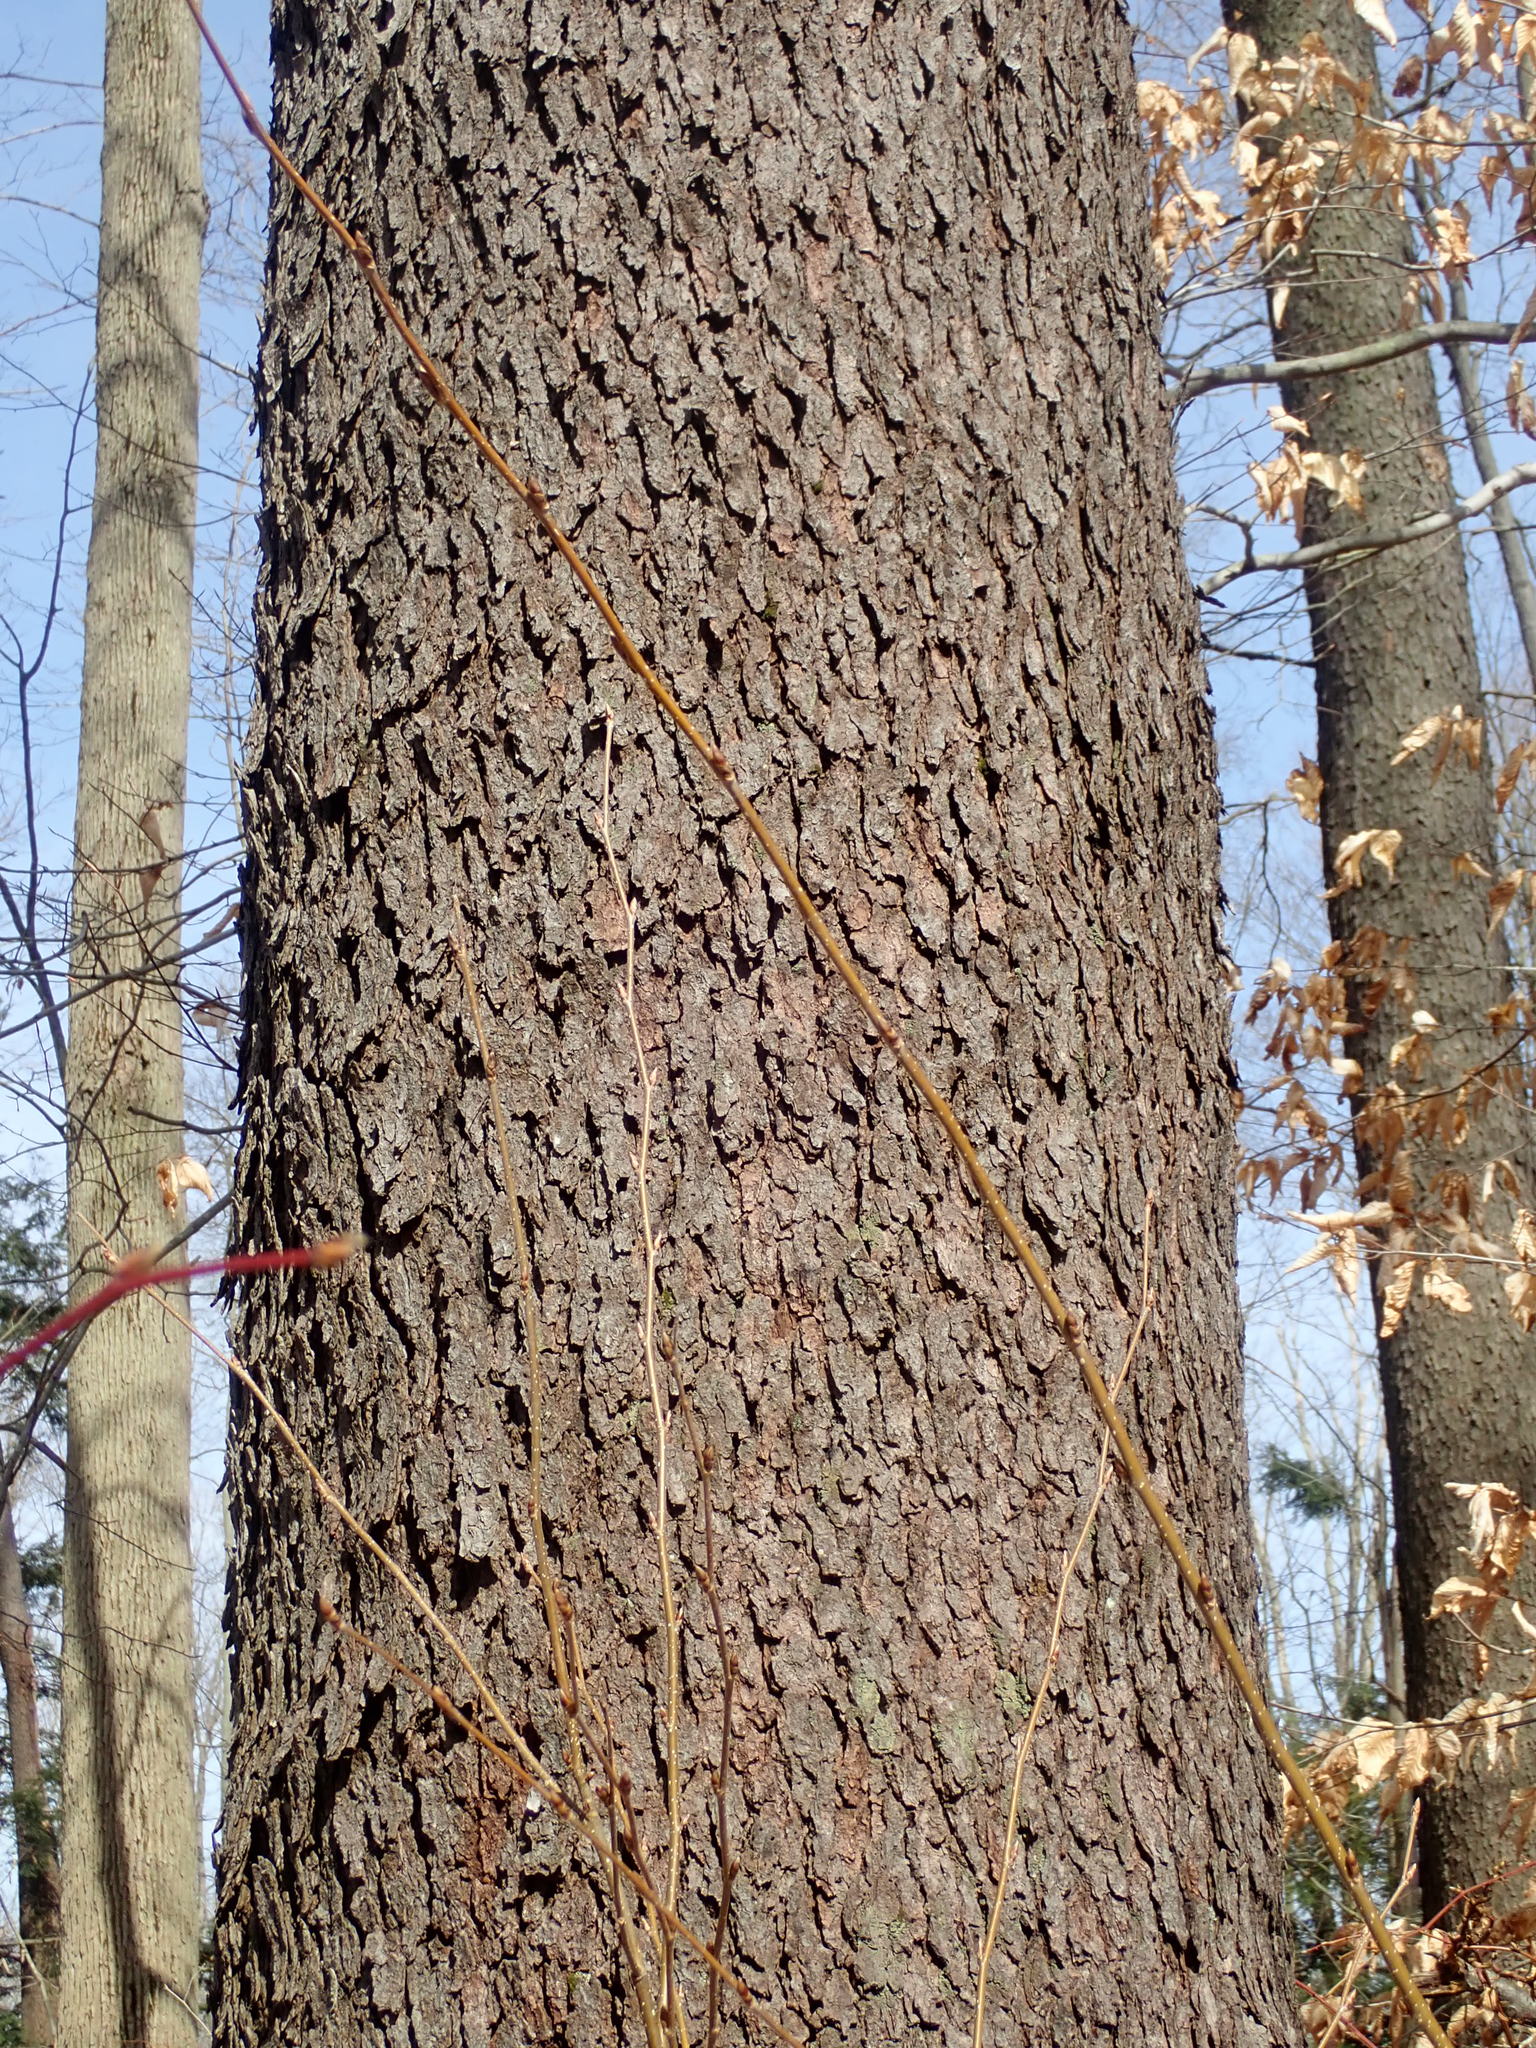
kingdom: Plantae
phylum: Tracheophyta
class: Magnoliopsida
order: Rosales
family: Rosaceae
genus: Prunus
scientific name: Prunus serotina
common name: Black cherry
